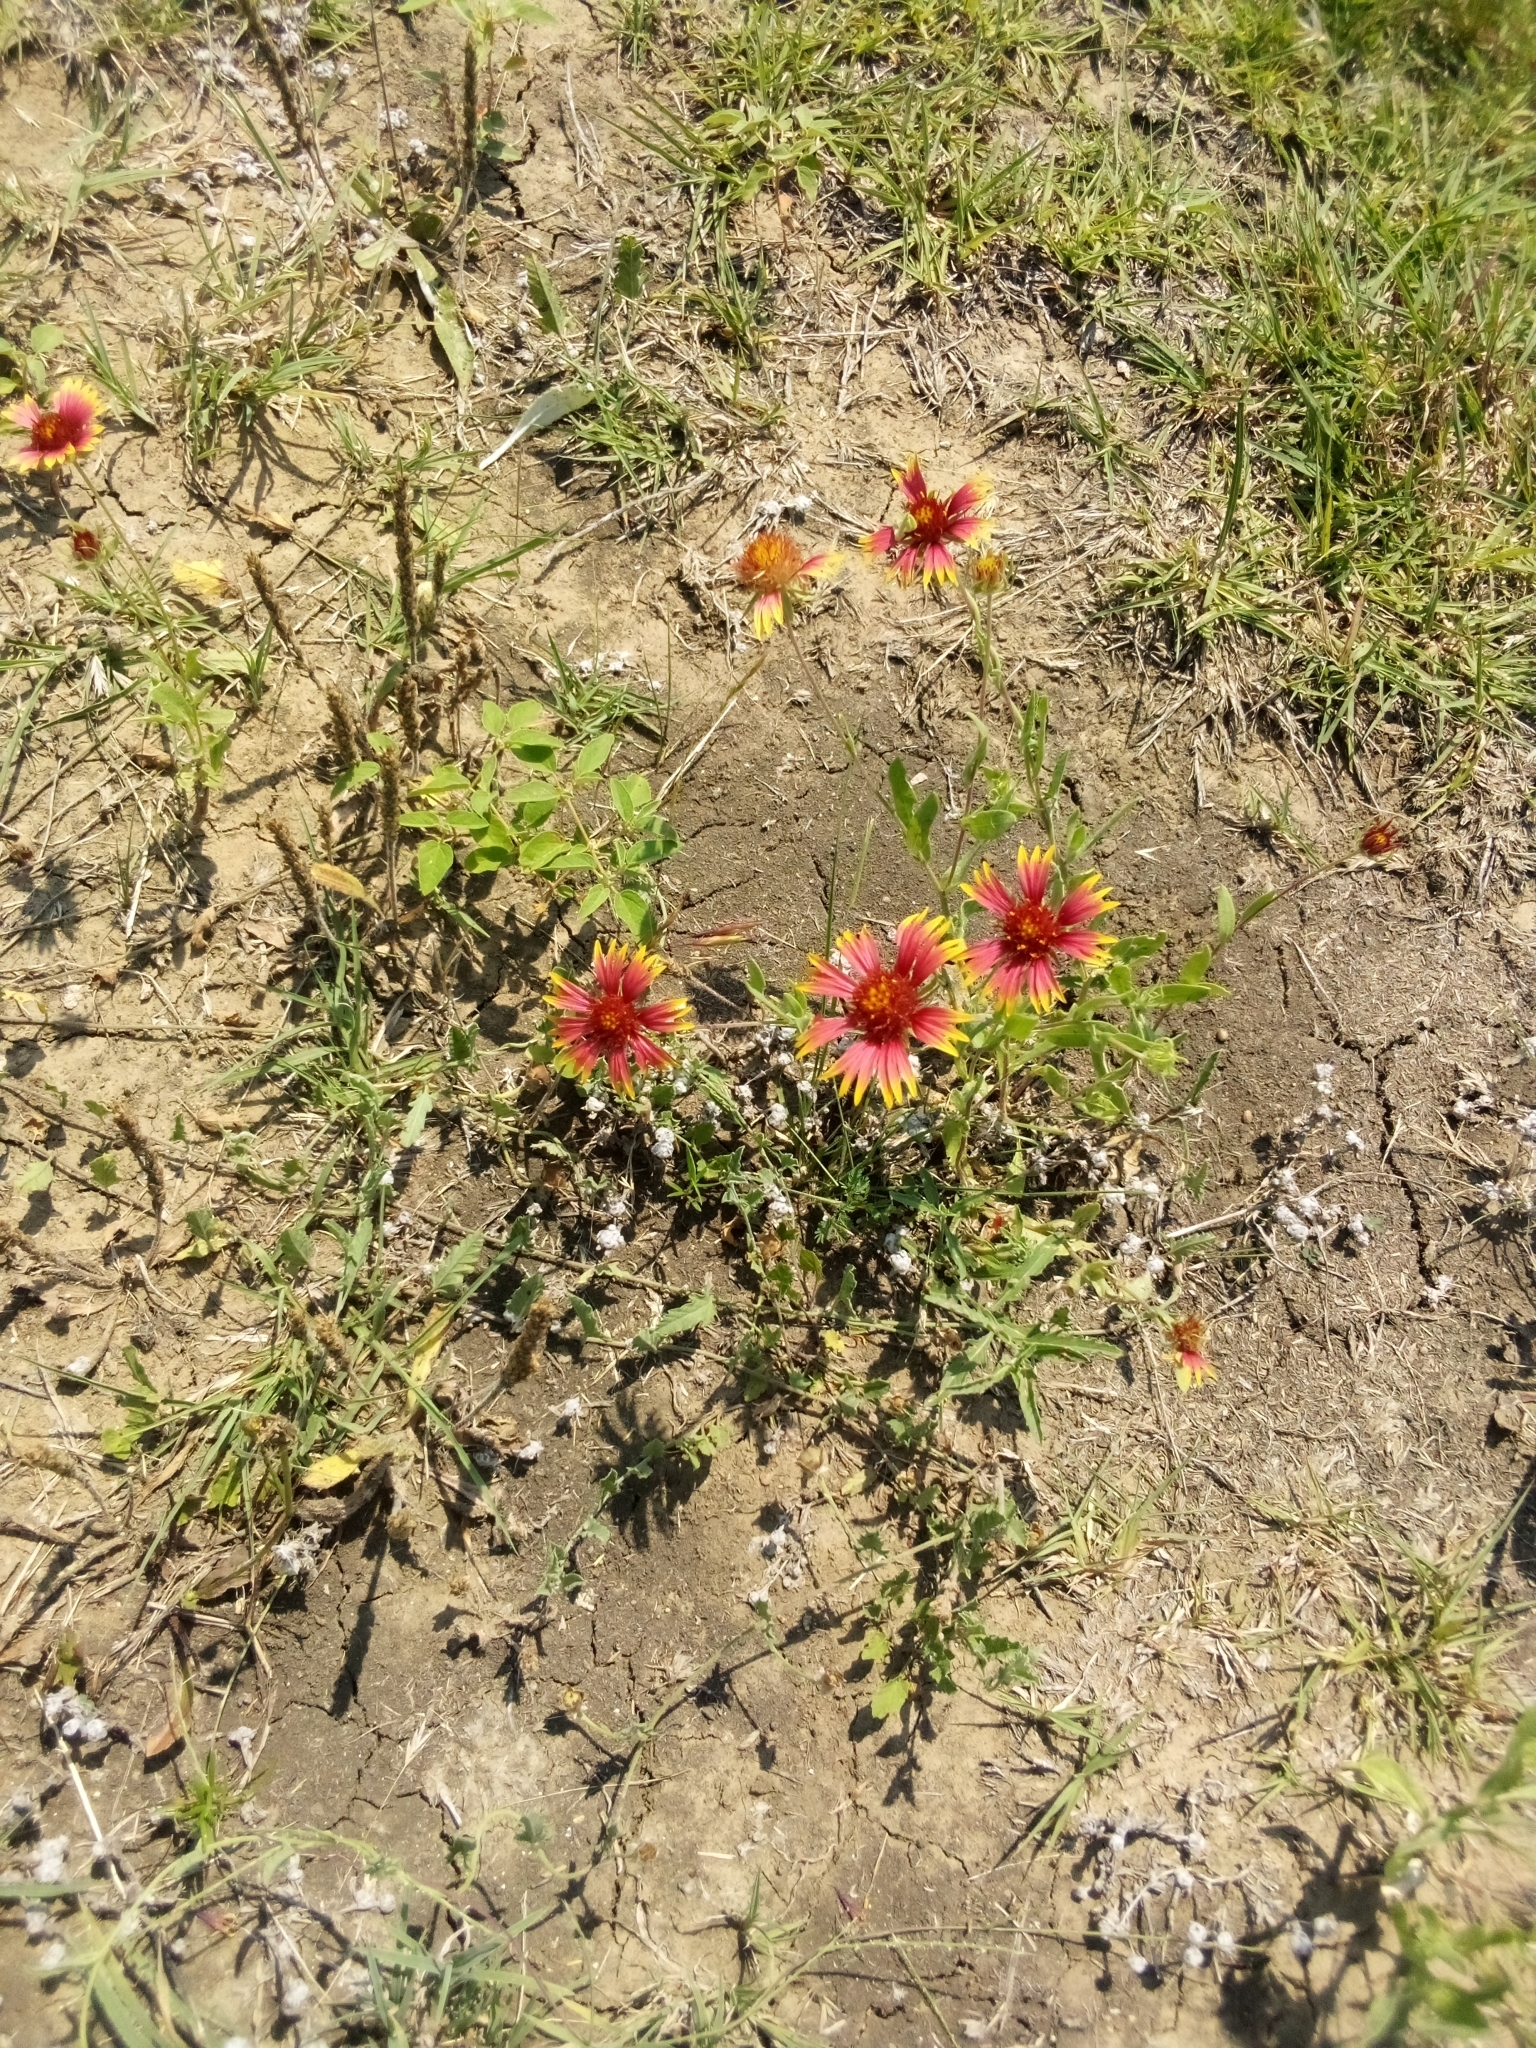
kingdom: Plantae
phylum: Tracheophyta
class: Magnoliopsida
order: Asterales
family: Asteraceae
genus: Gaillardia
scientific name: Gaillardia pulchella
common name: Firewheel
